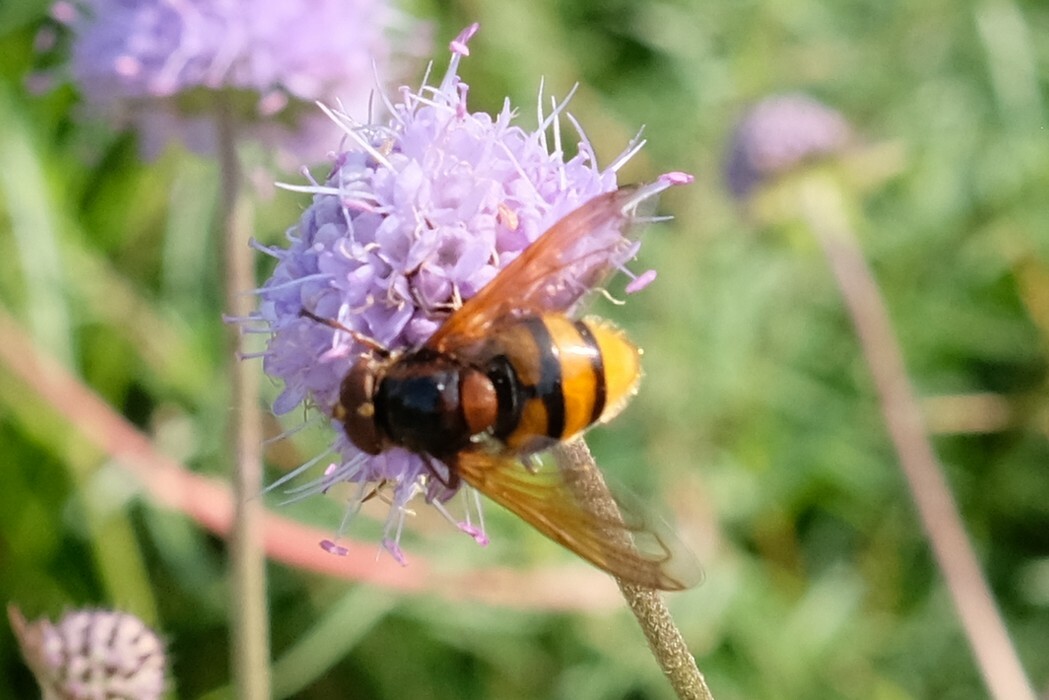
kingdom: Animalia
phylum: Arthropoda
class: Insecta
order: Diptera
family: Syrphidae
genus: Volucella
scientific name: Volucella zonaria
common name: Hornet hoverfly
